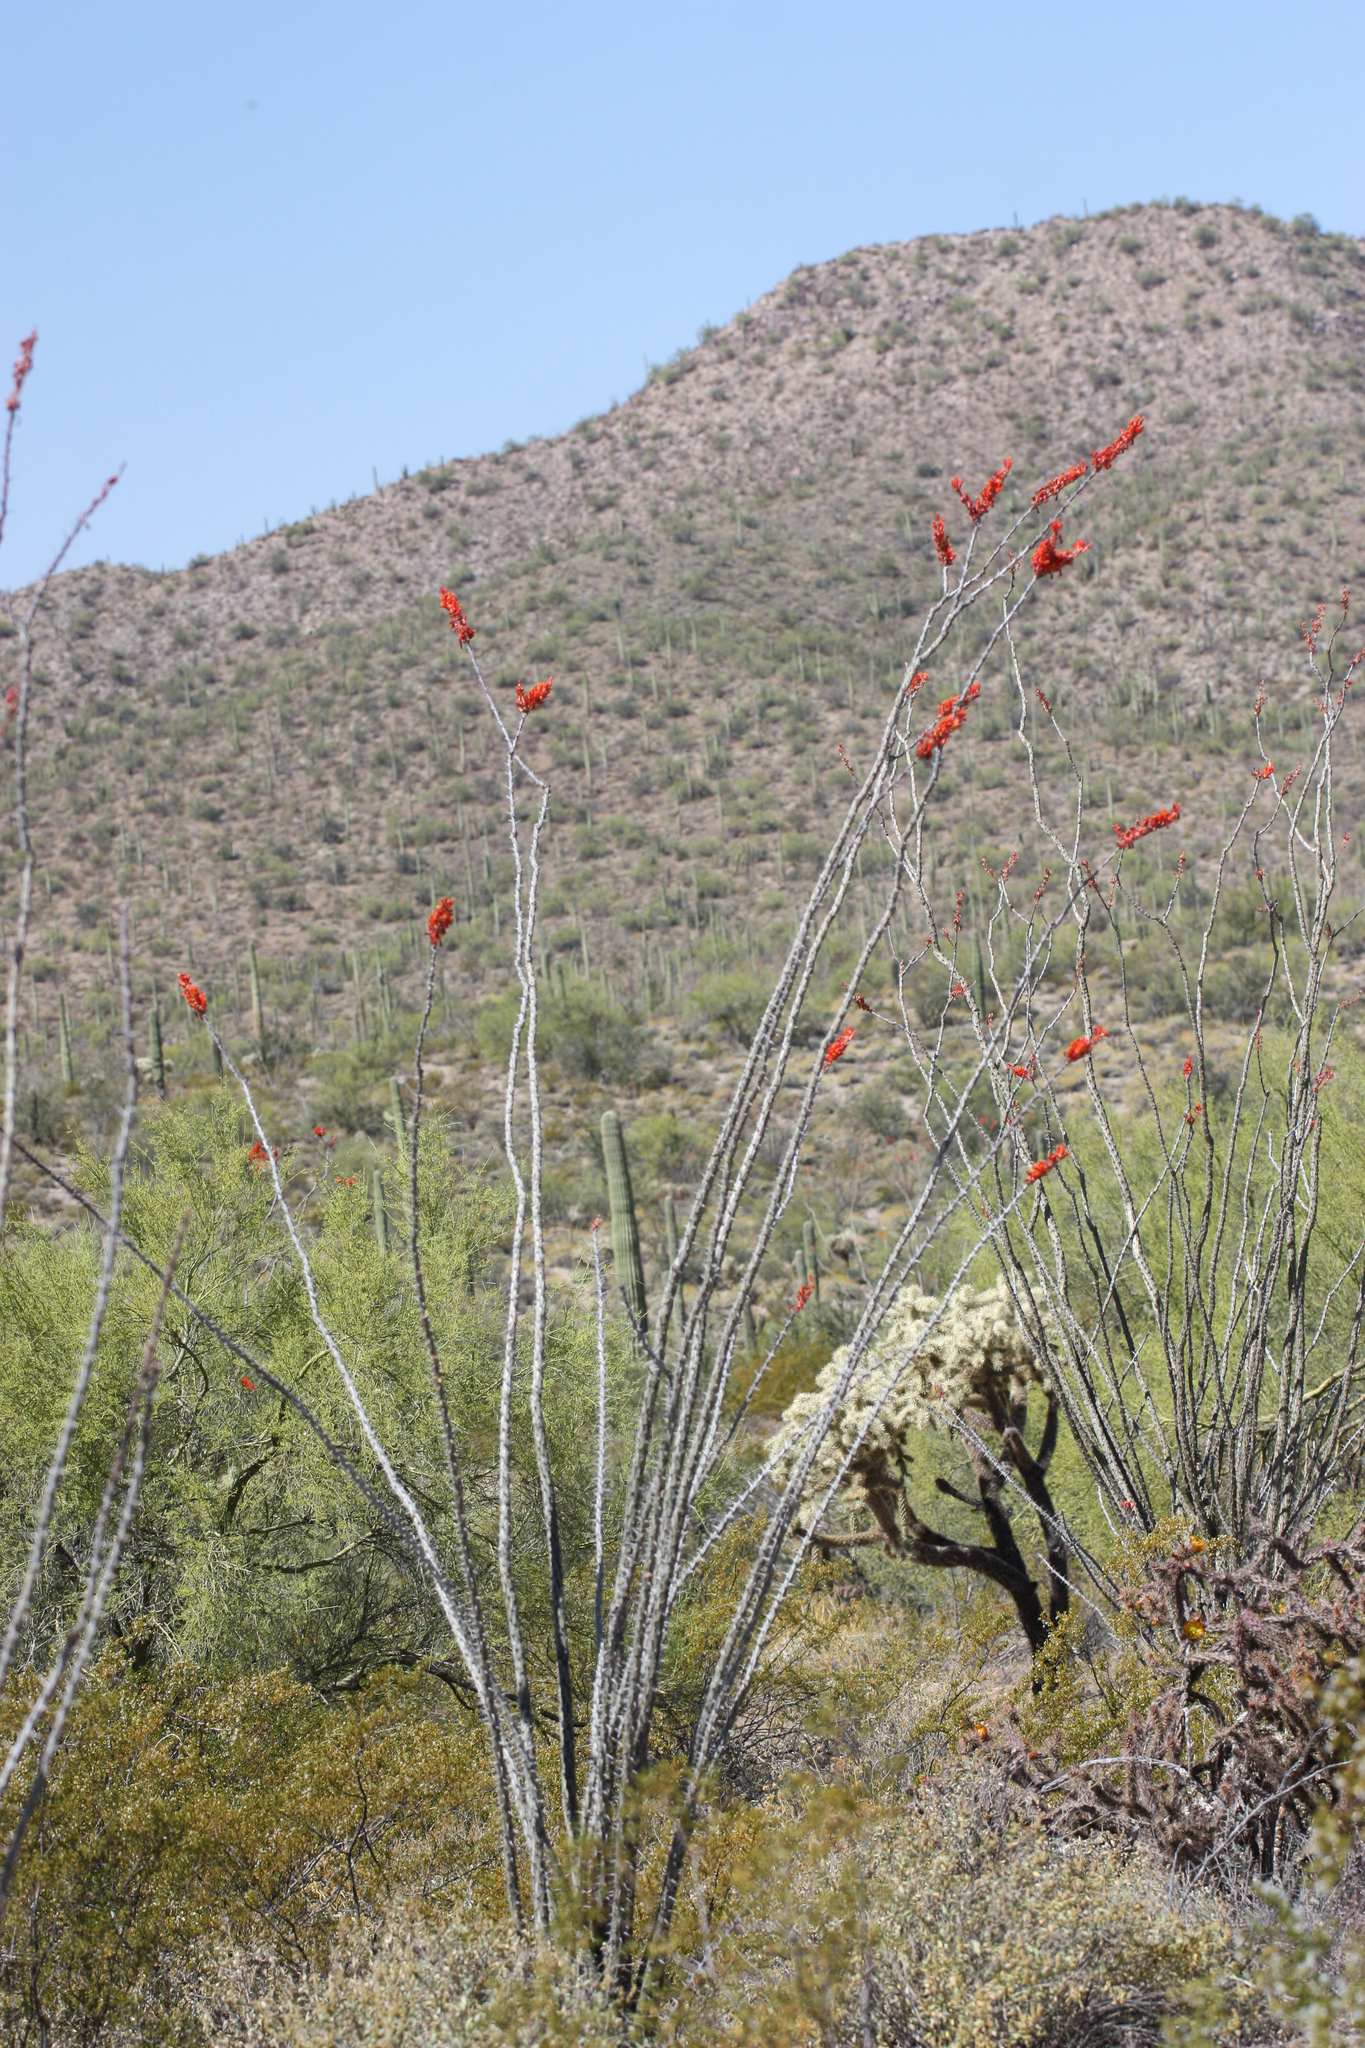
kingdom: Plantae
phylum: Tracheophyta
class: Magnoliopsida
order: Ericales
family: Fouquieriaceae
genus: Fouquieria
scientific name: Fouquieria splendens
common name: Vine-cactus
